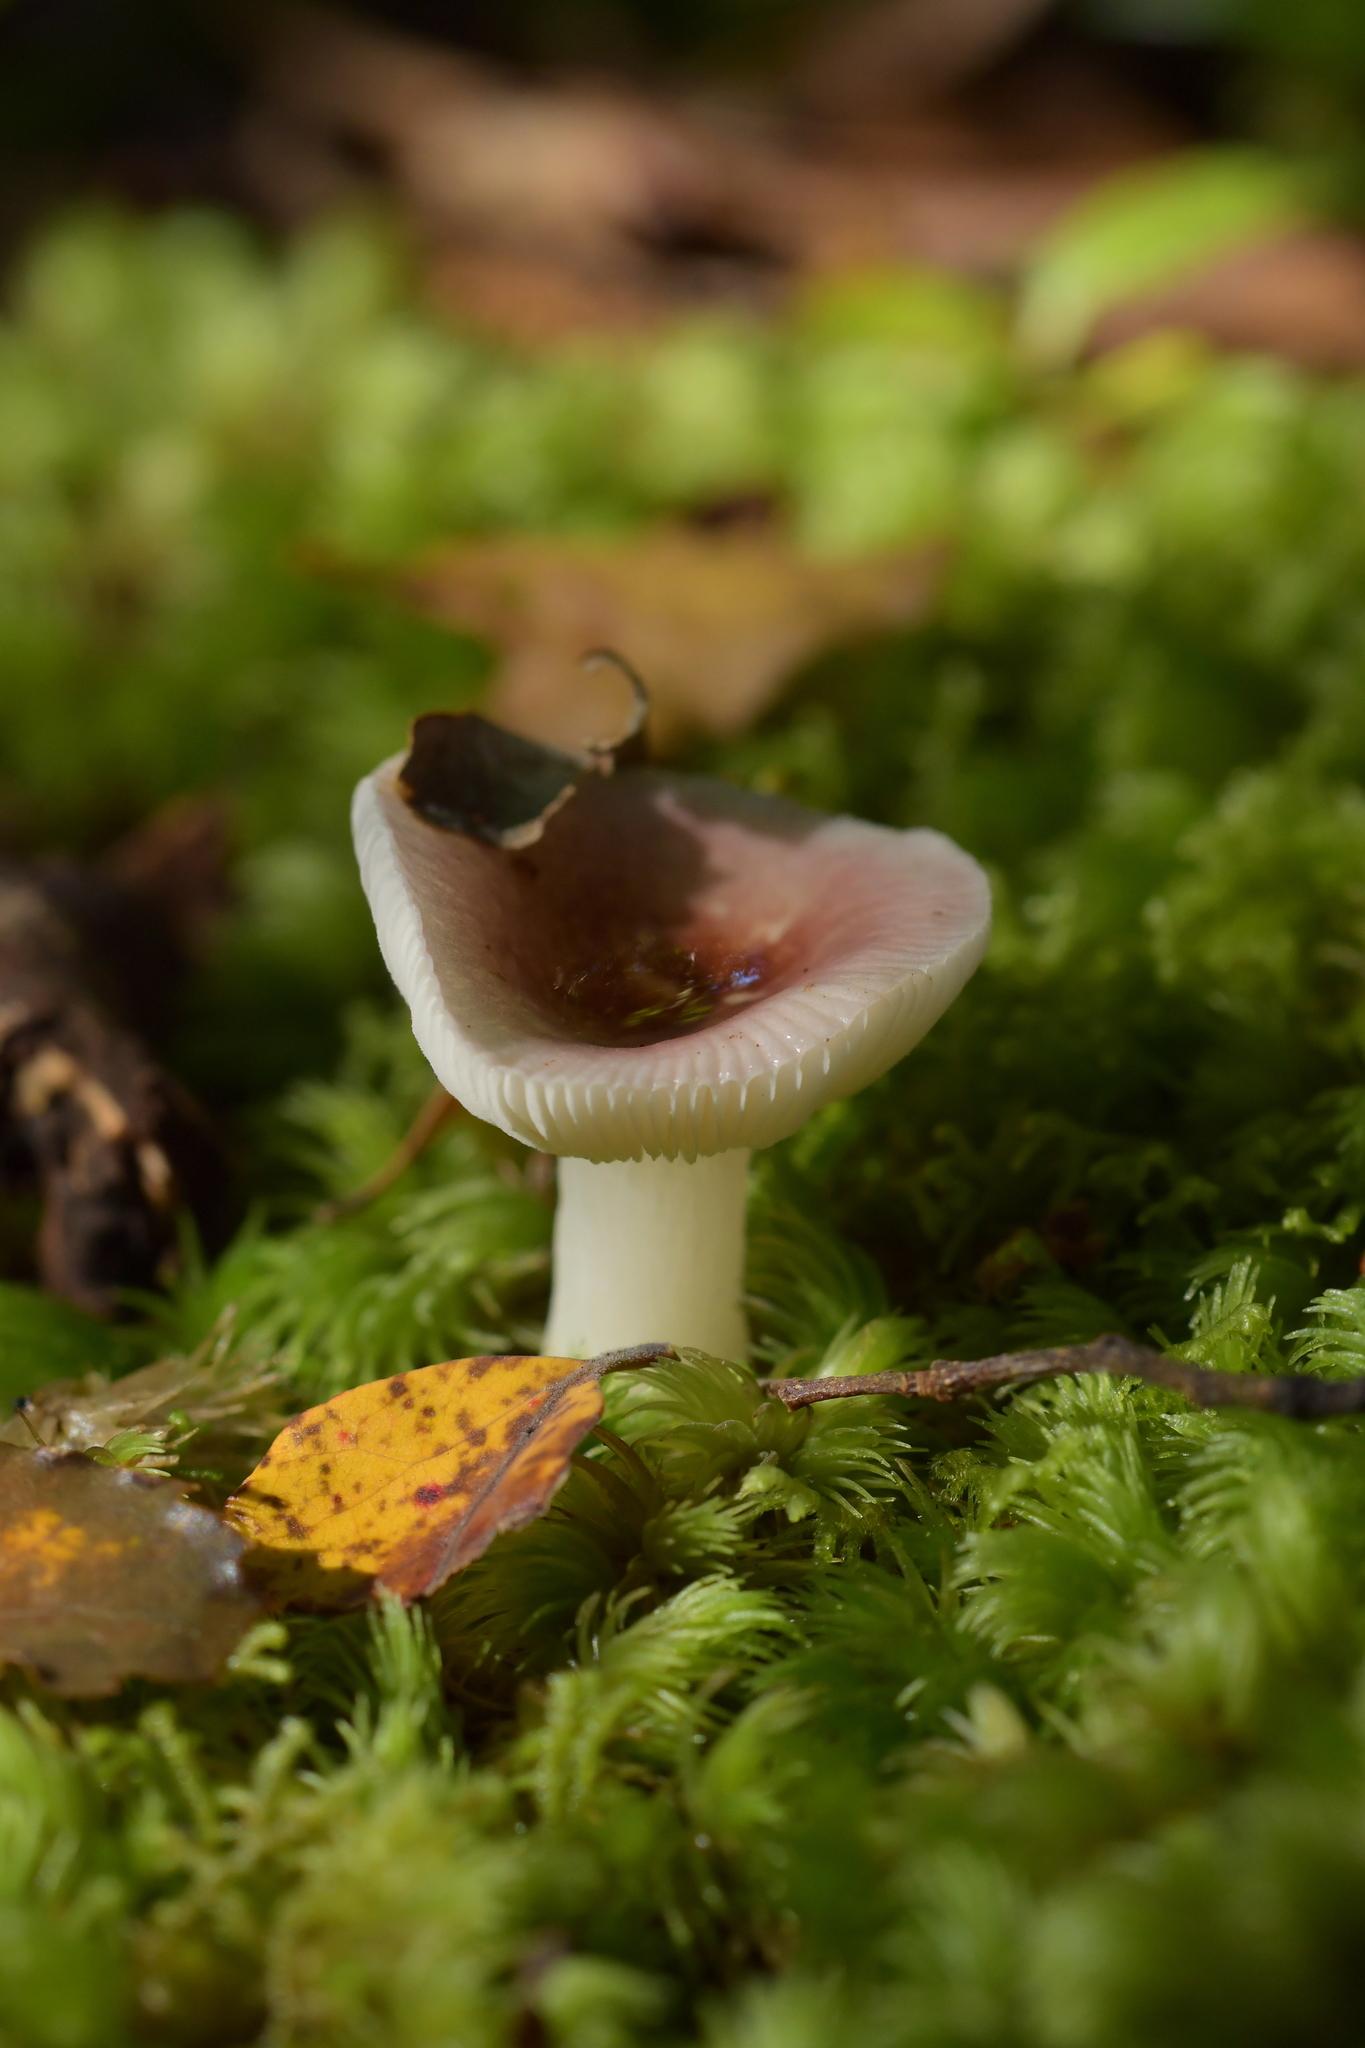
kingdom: Fungi
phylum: Basidiomycota
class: Agaricomycetes
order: Russulales
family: Russulaceae
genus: Russula
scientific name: Russula roseopileata
